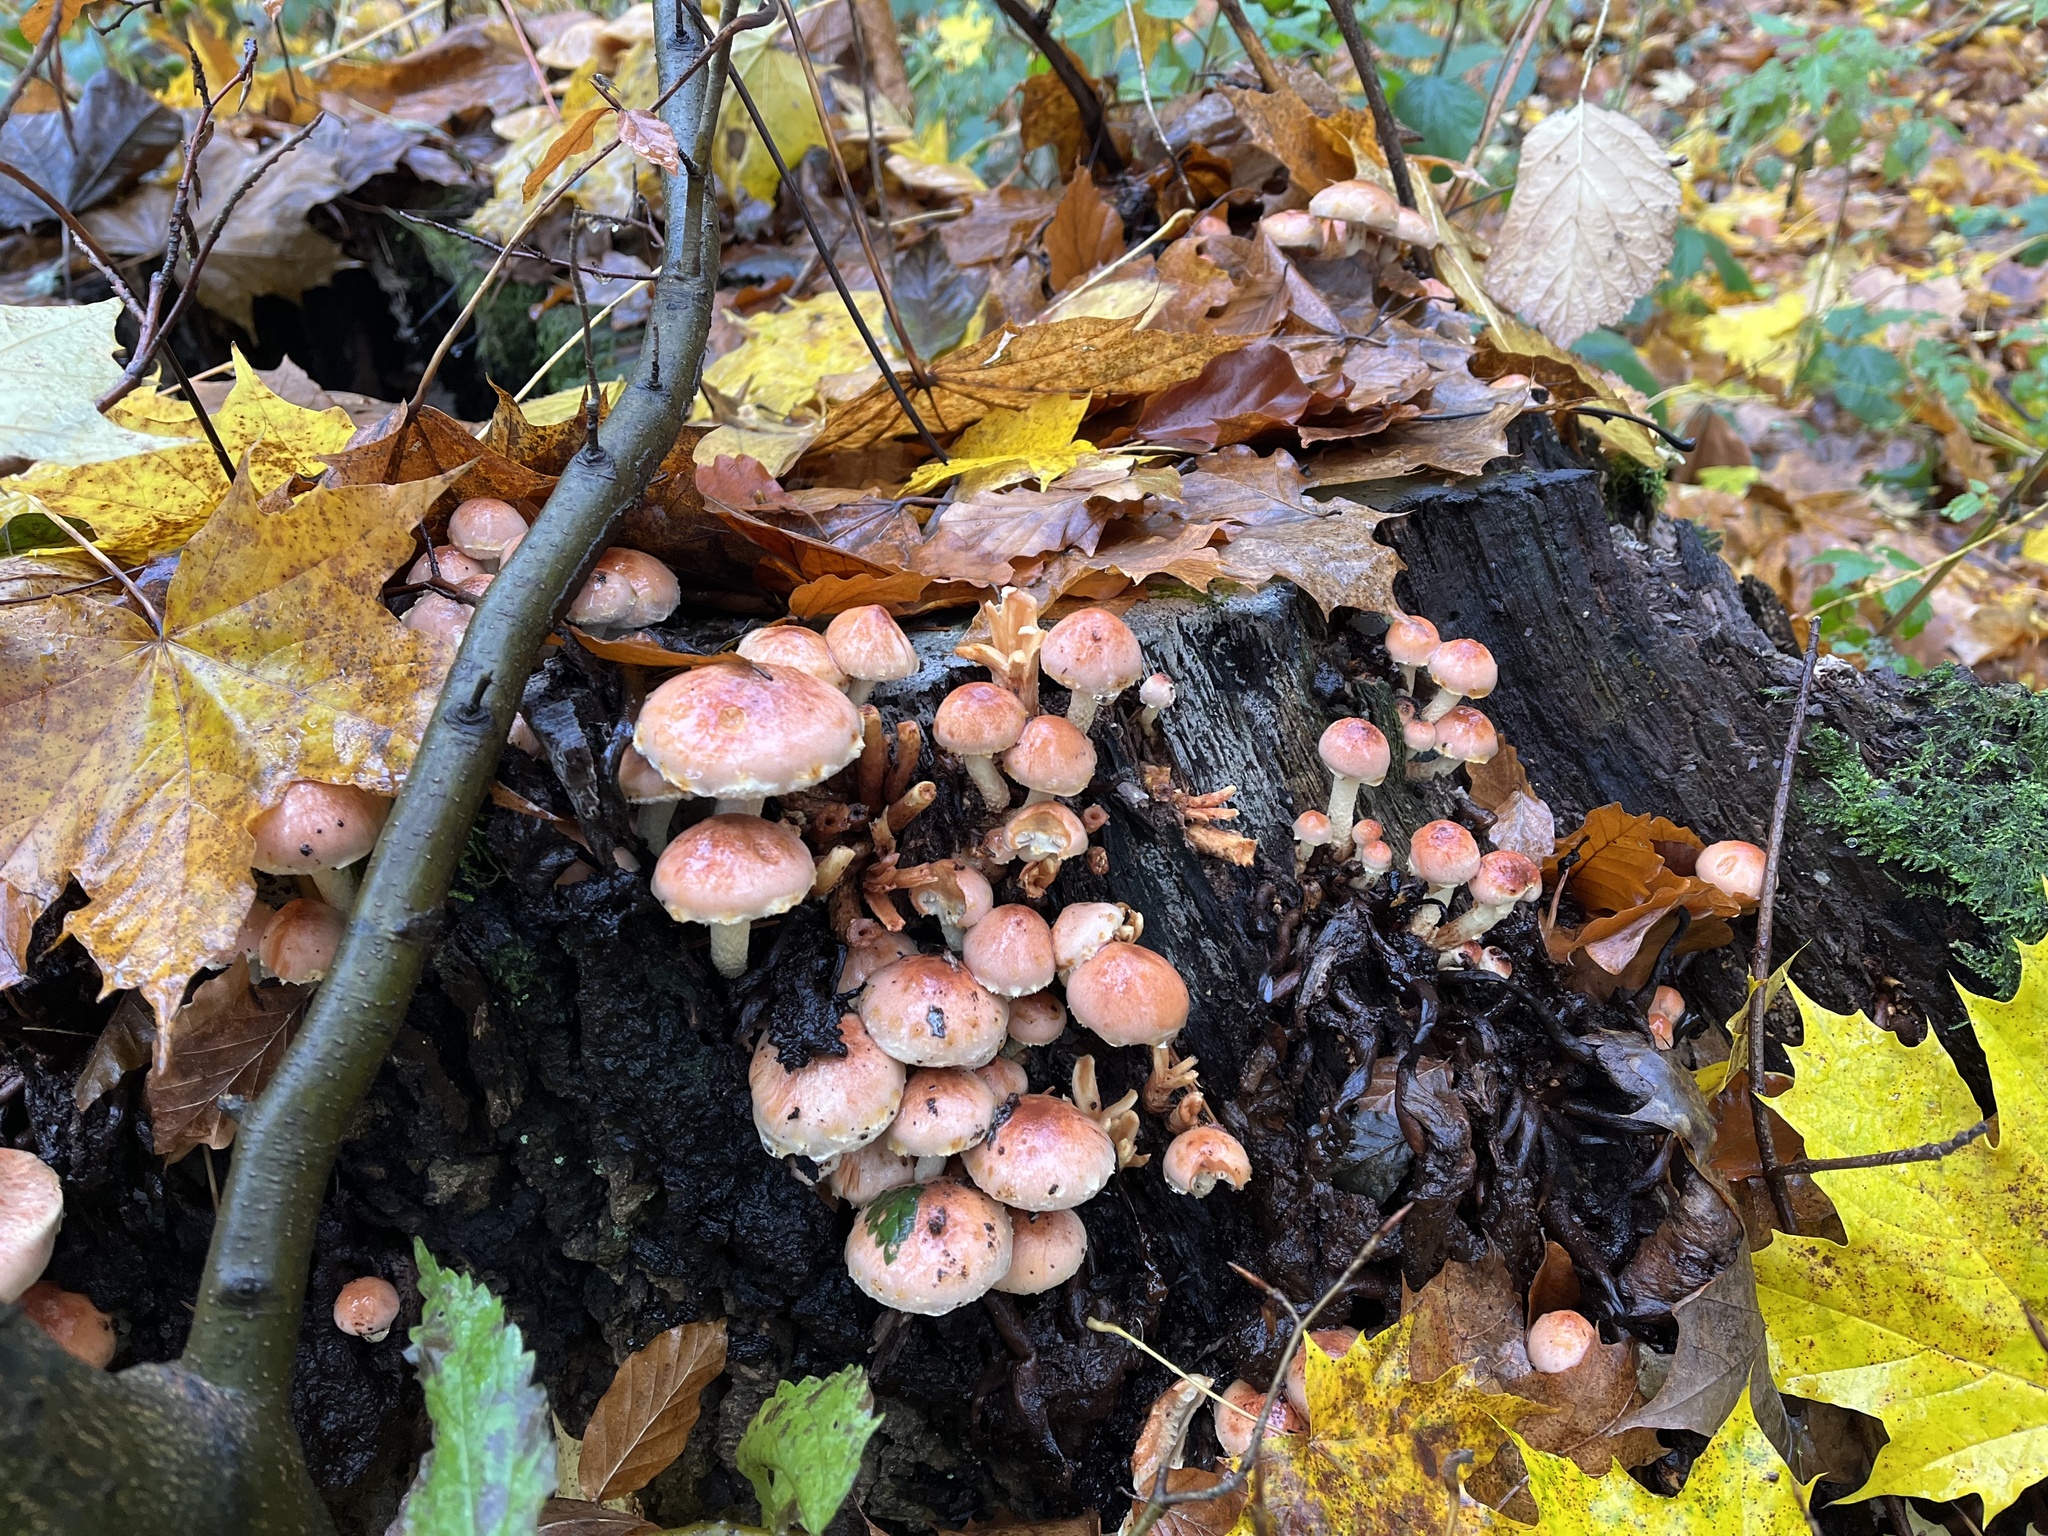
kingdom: Fungi
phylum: Basidiomycota
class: Agaricomycetes
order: Agaricales
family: Strophariaceae
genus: Hypholoma
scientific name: Hypholoma lateritium
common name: Brick caps
